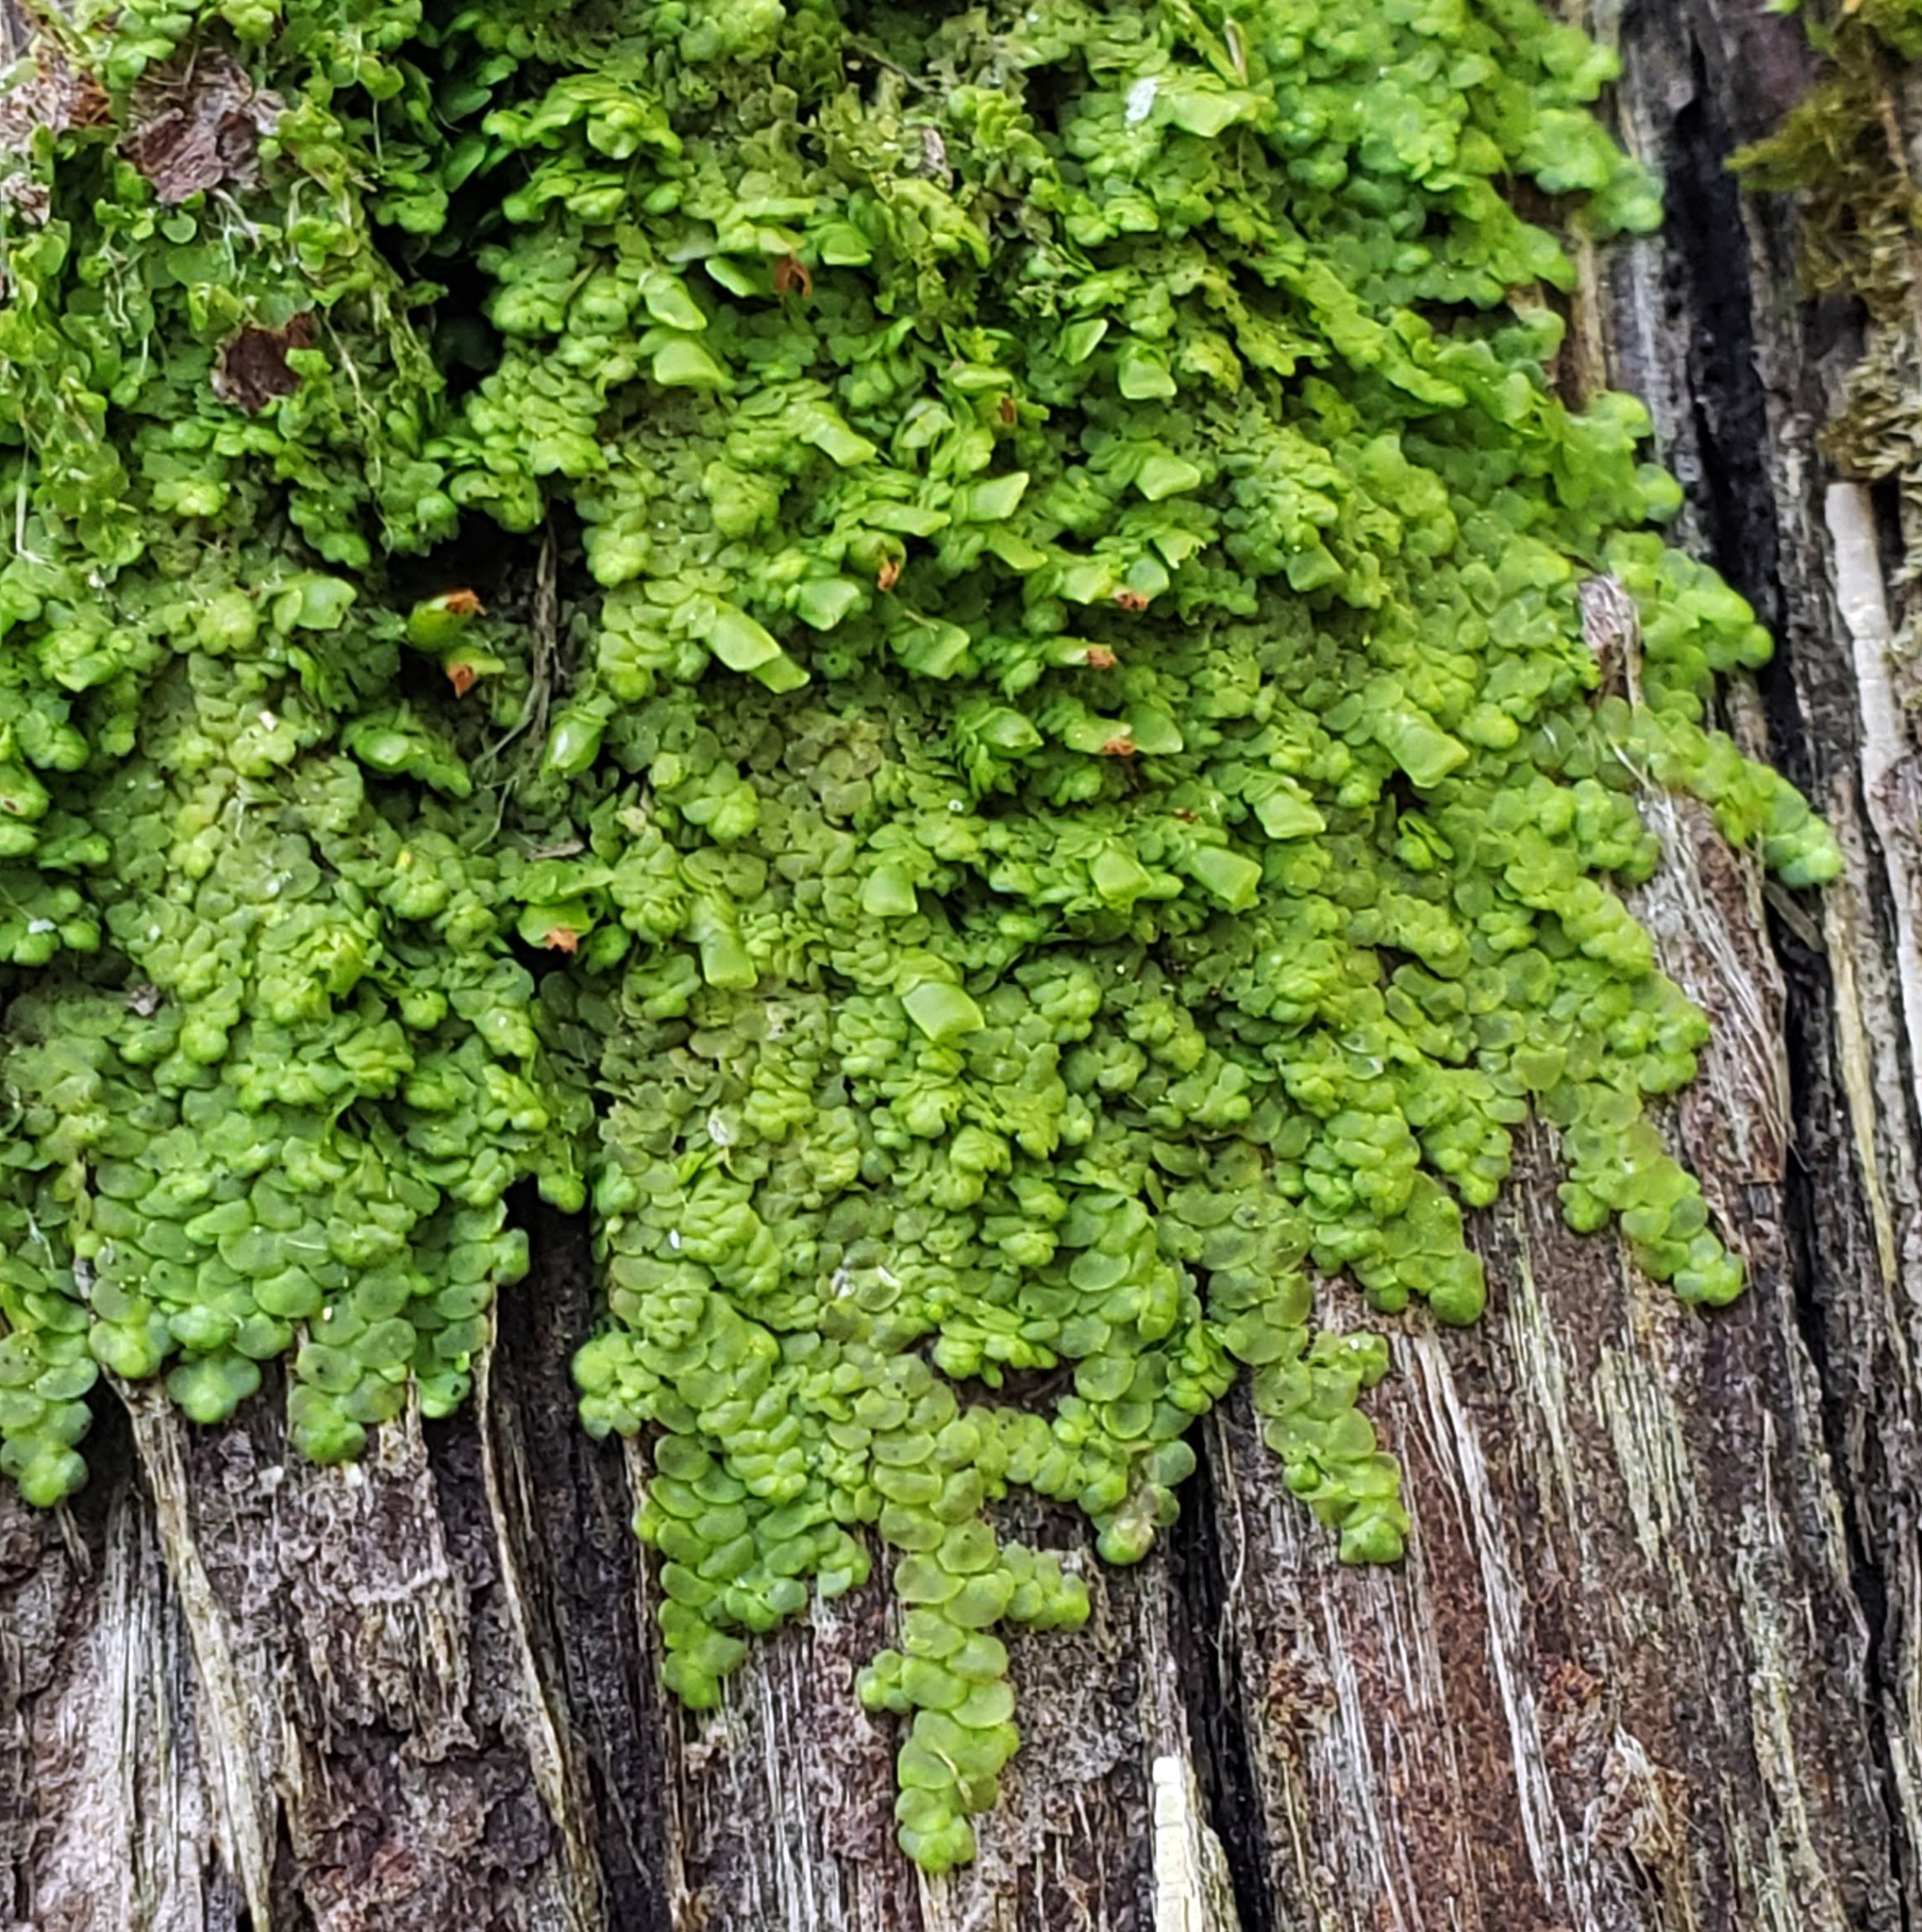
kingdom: Plantae
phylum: Marchantiophyta
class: Jungermanniopsida
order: Porellales
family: Radulaceae
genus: Radula
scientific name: Radula complanata
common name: Flat-leaved scalewort
